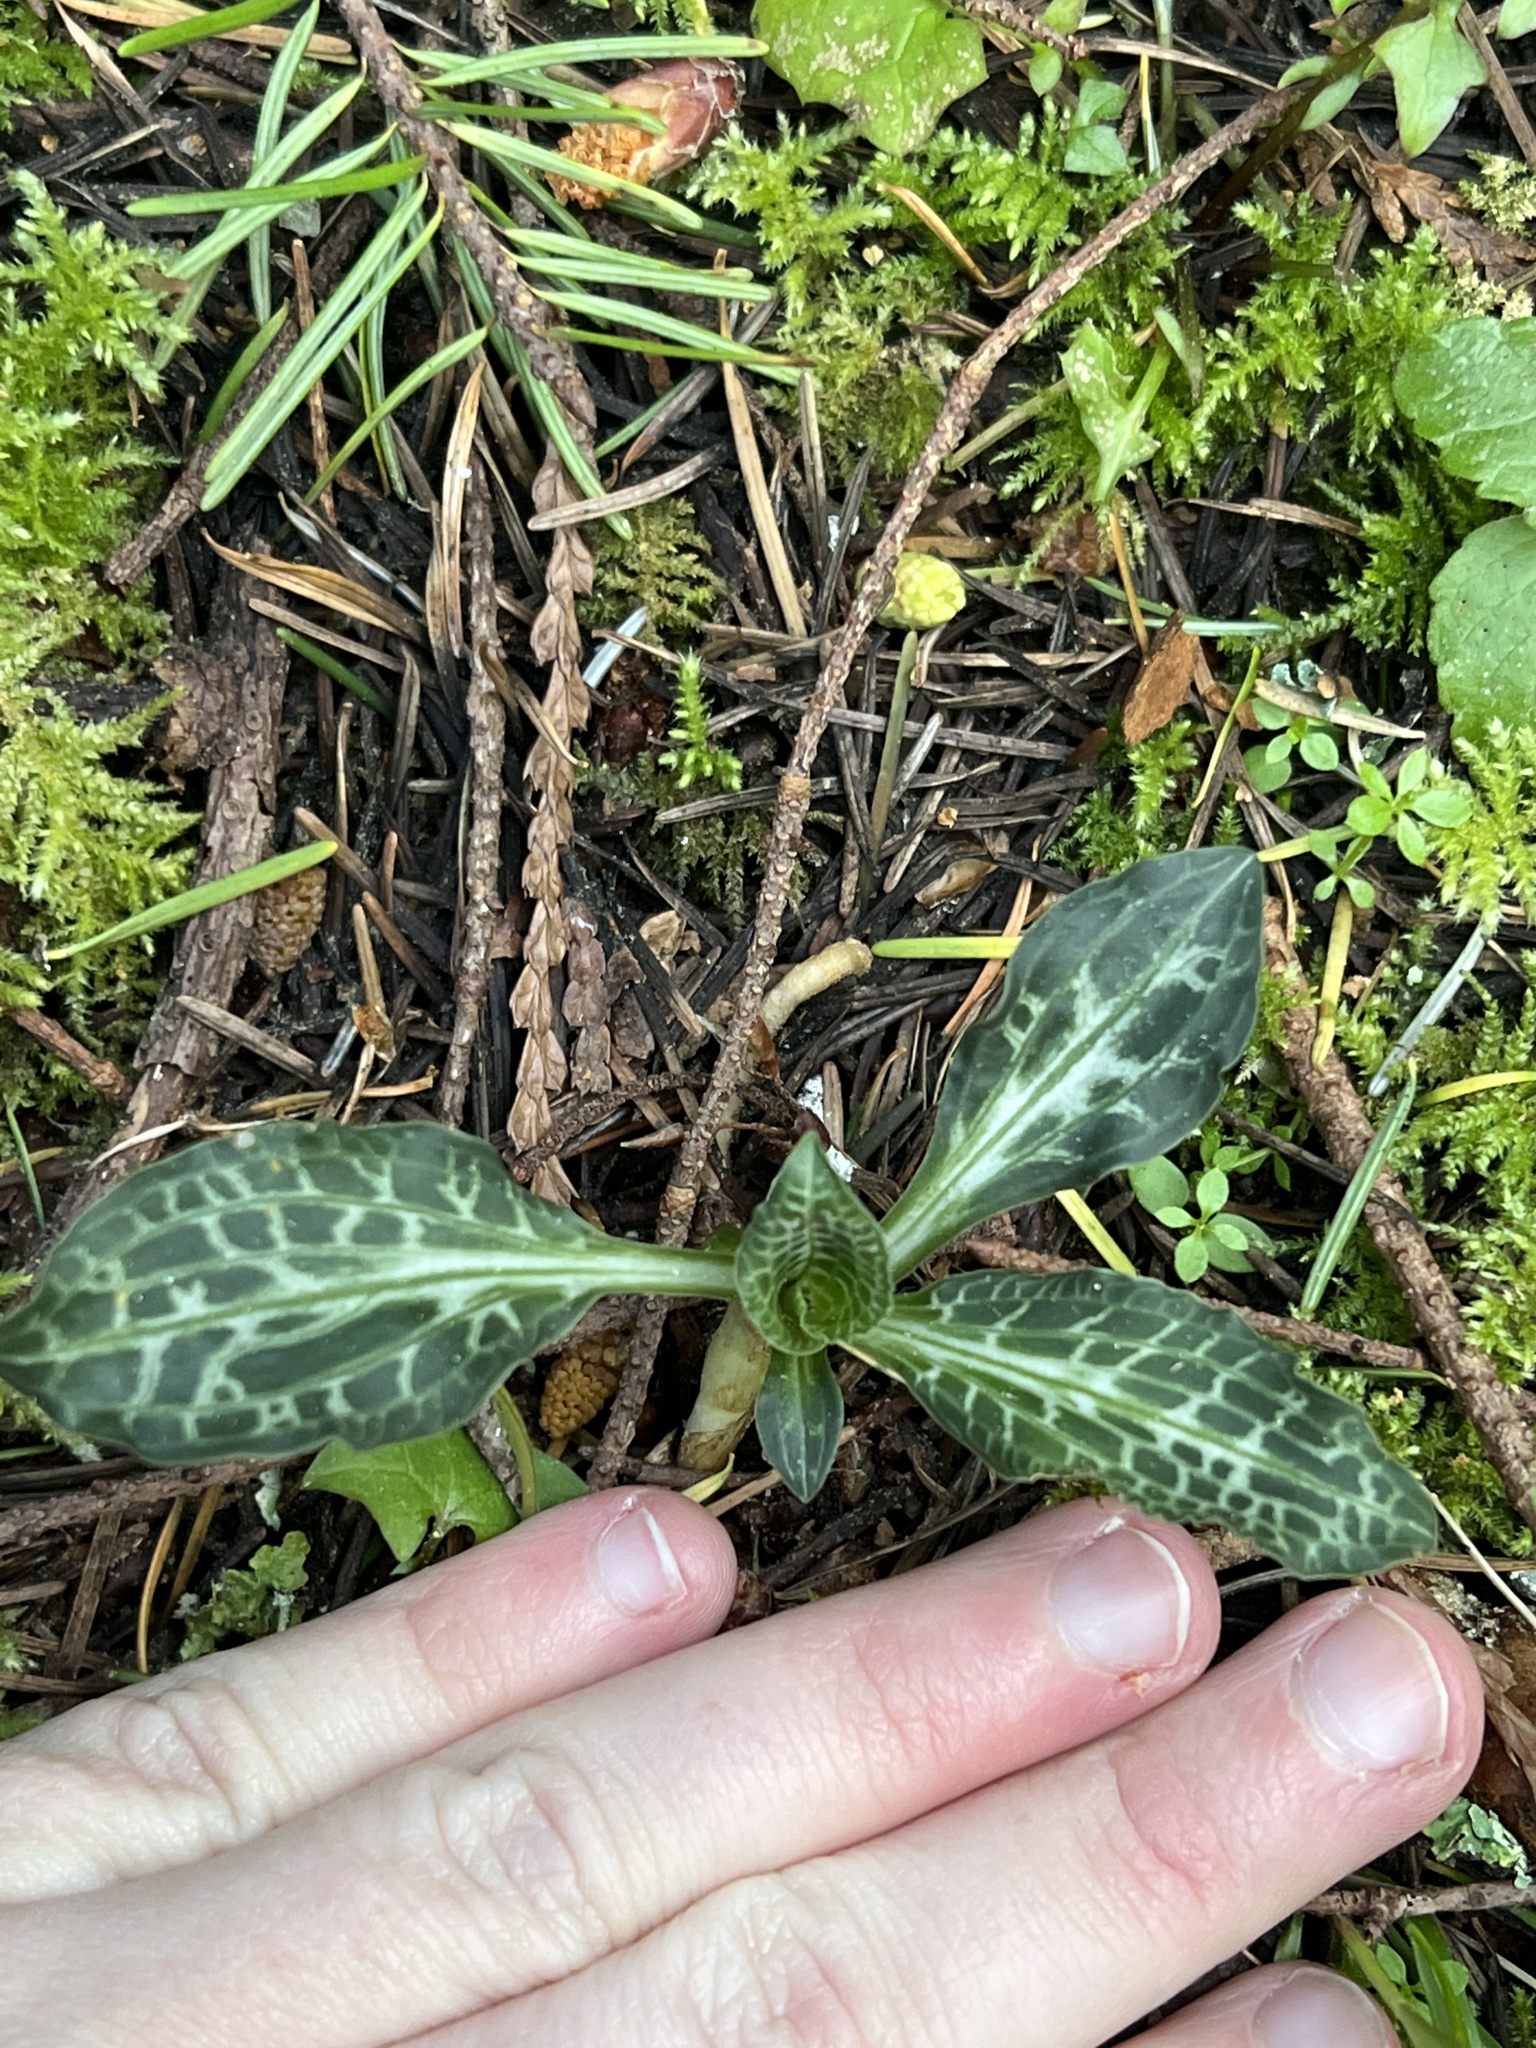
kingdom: Plantae
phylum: Tracheophyta
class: Liliopsida
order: Asparagales
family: Orchidaceae
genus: Goodyera
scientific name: Goodyera oblongifolia
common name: Giant rattlesnake-plantain
